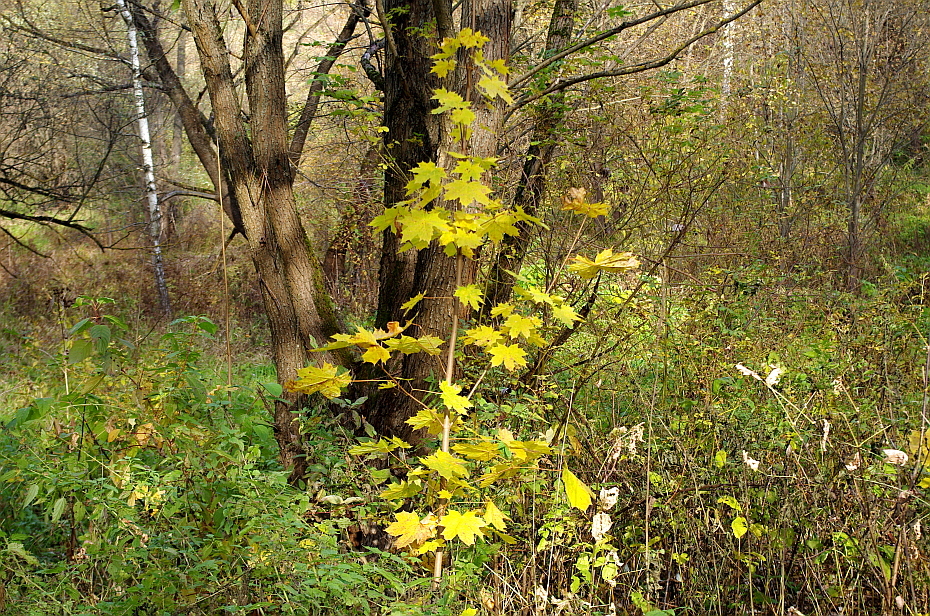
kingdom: Plantae
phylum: Tracheophyta
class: Magnoliopsida
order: Sapindales
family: Sapindaceae
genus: Acer
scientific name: Acer platanoides
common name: Norway maple
